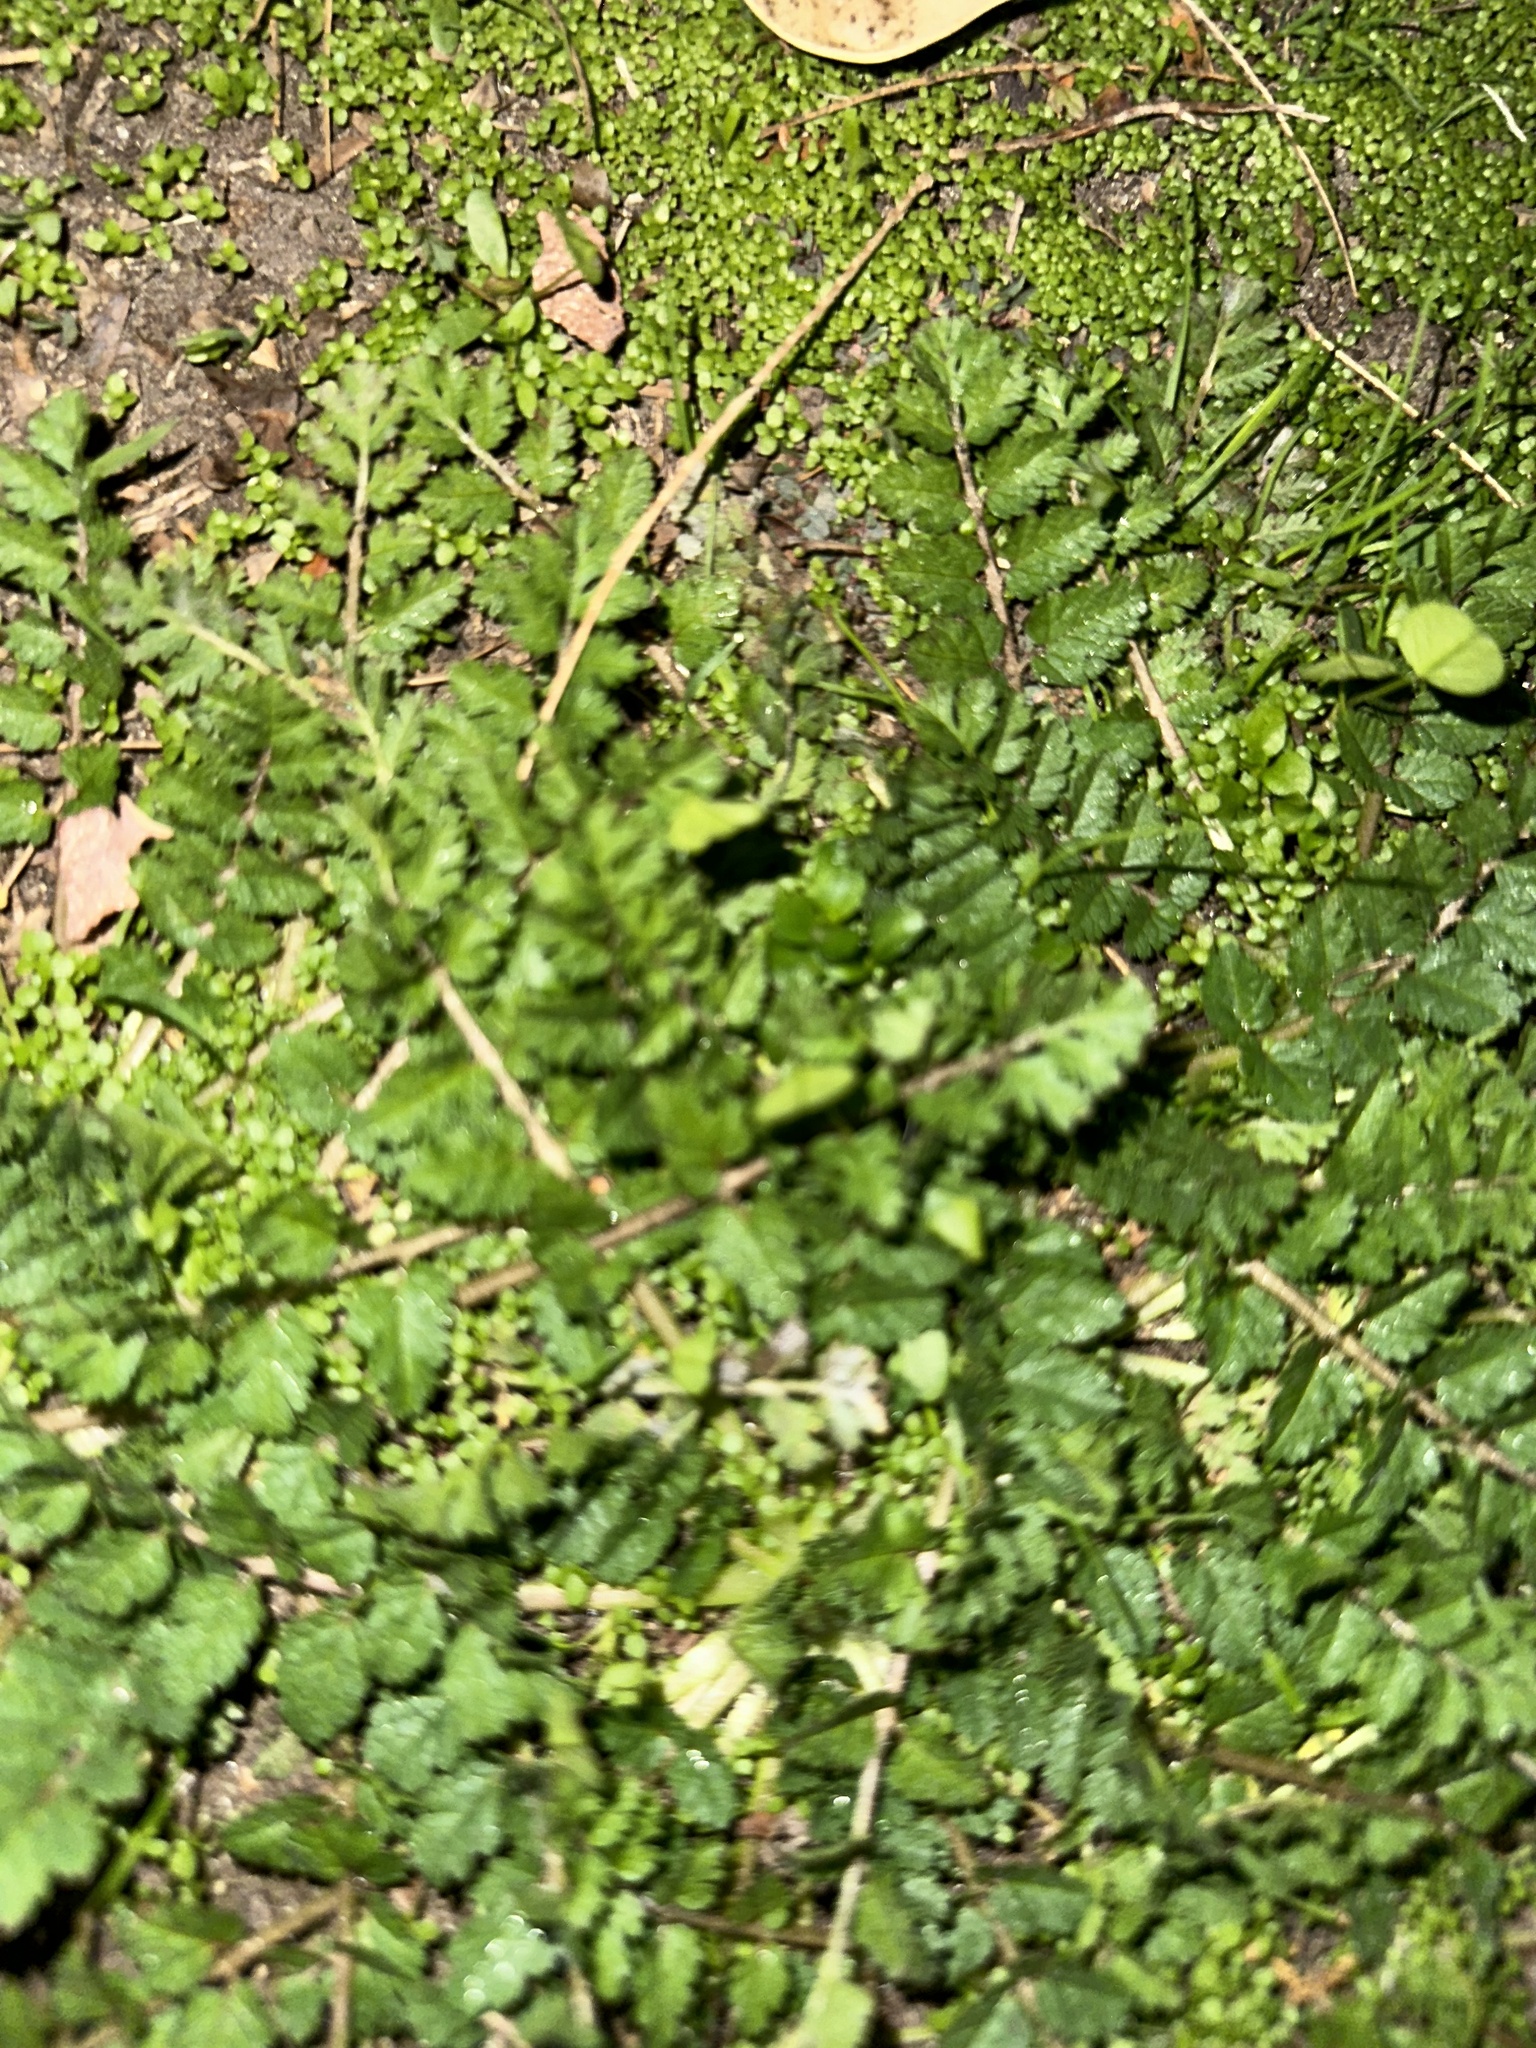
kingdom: Plantae
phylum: Tracheophyta
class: Magnoliopsida
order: Geraniales
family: Geraniaceae
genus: Erodium
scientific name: Erodium moschatum
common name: Musk stork's-bill
